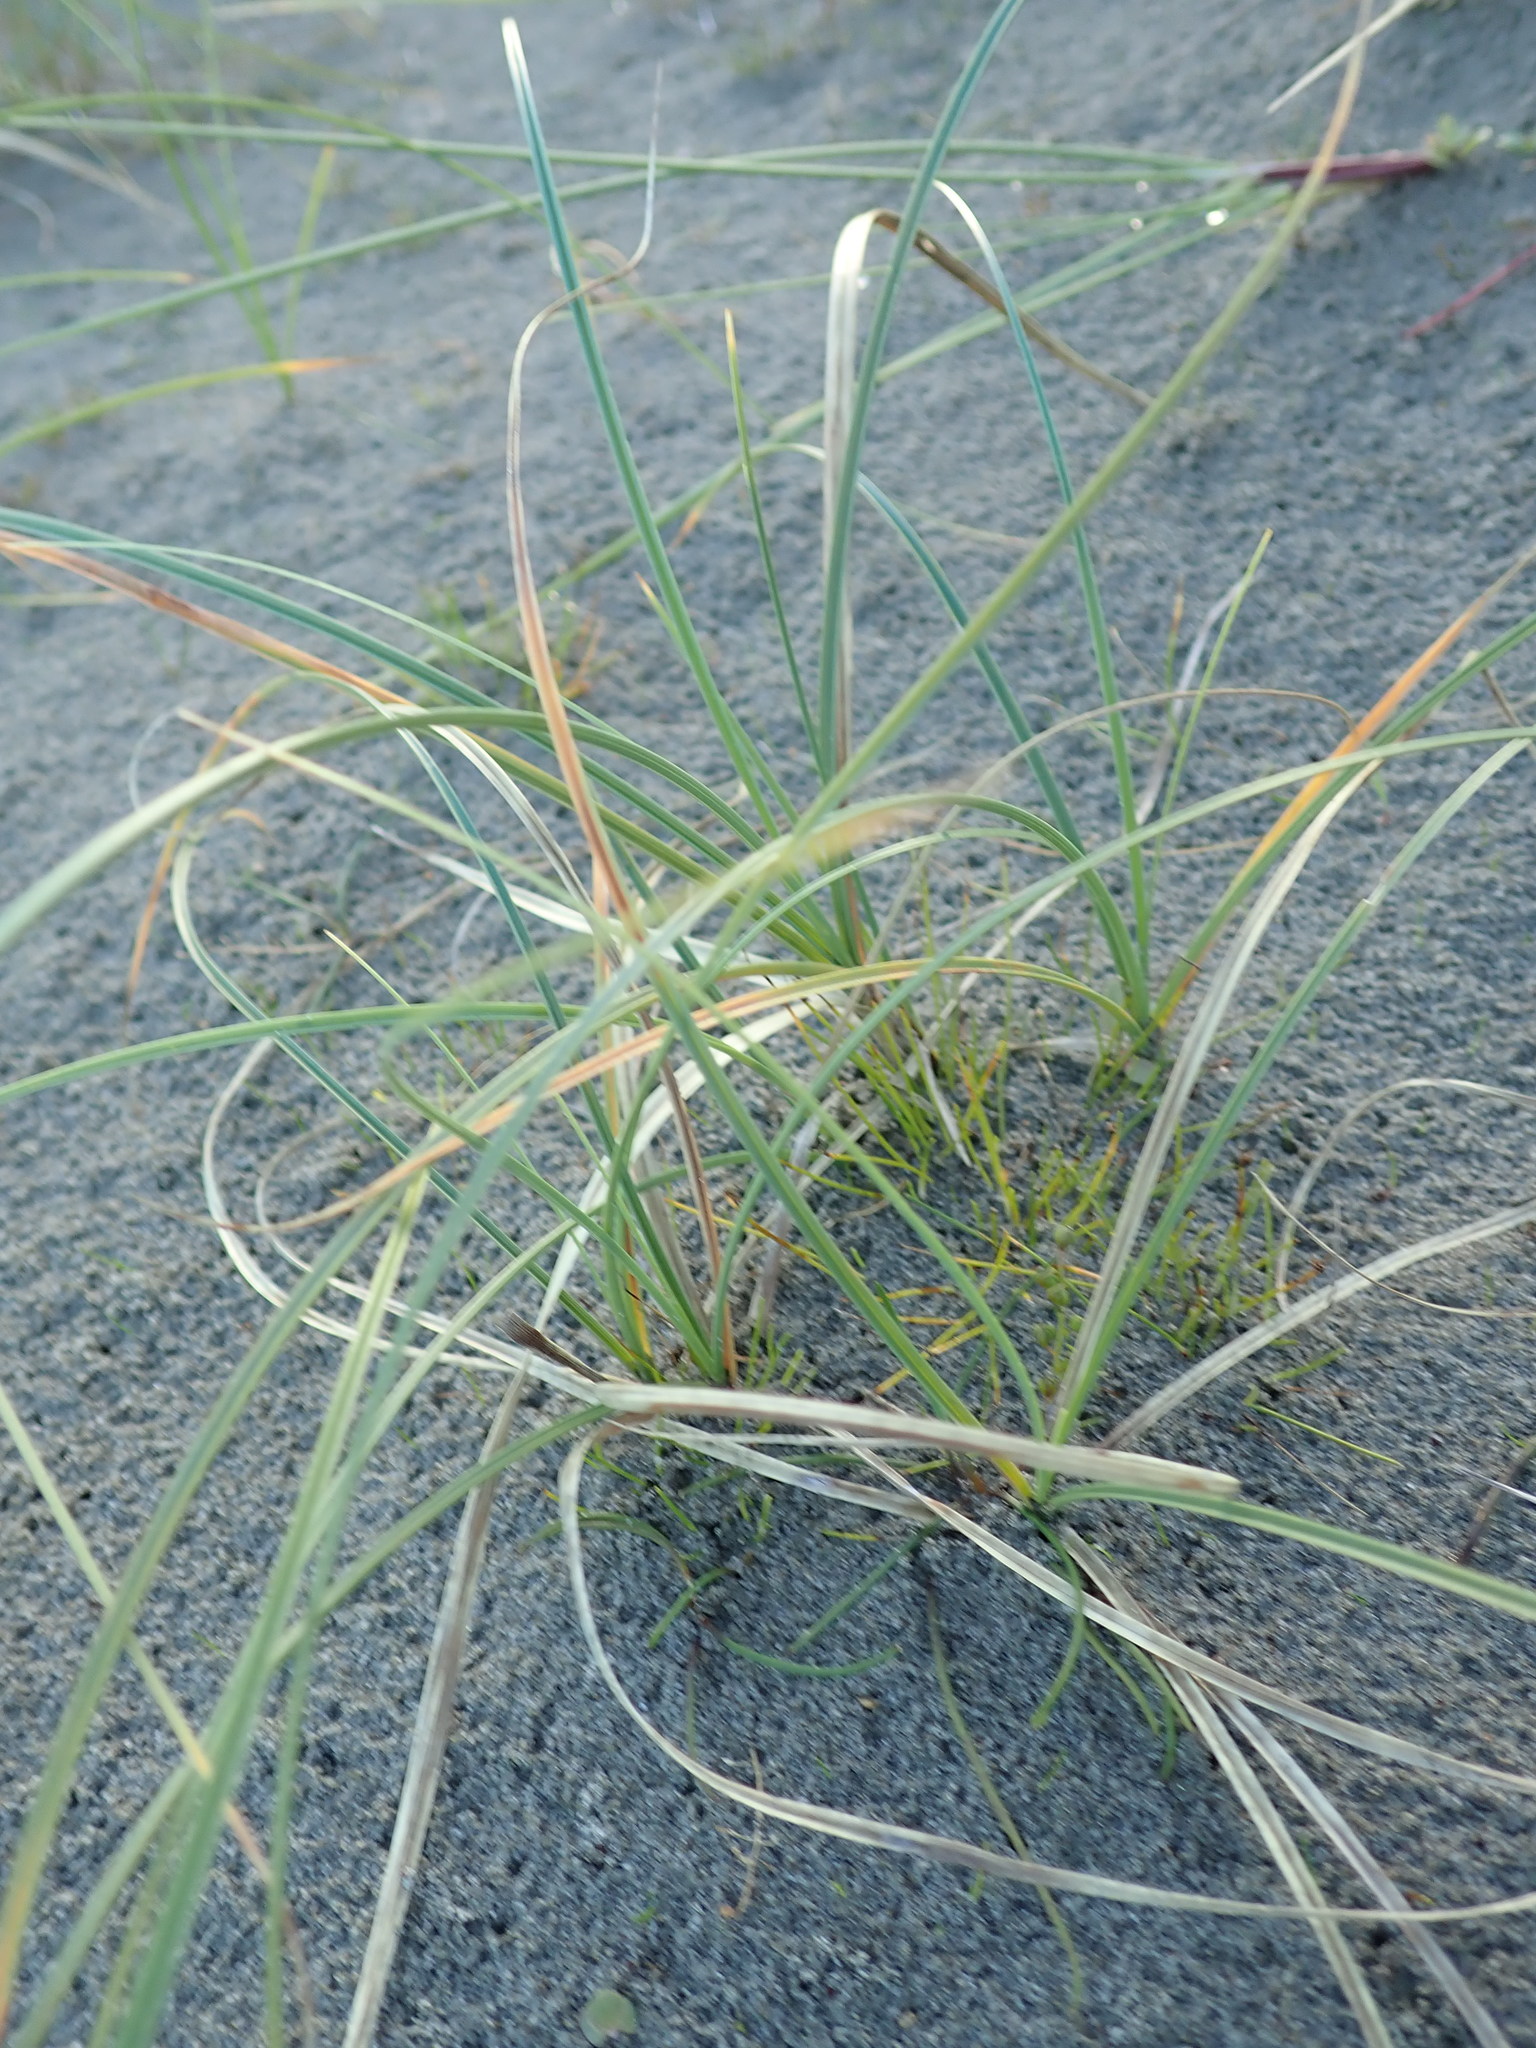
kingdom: Plantae
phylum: Tracheophyta
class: Liliopsida
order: Poales
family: Cyperaceae
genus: Carex
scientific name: Carex pumila
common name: Dwarf sedge
